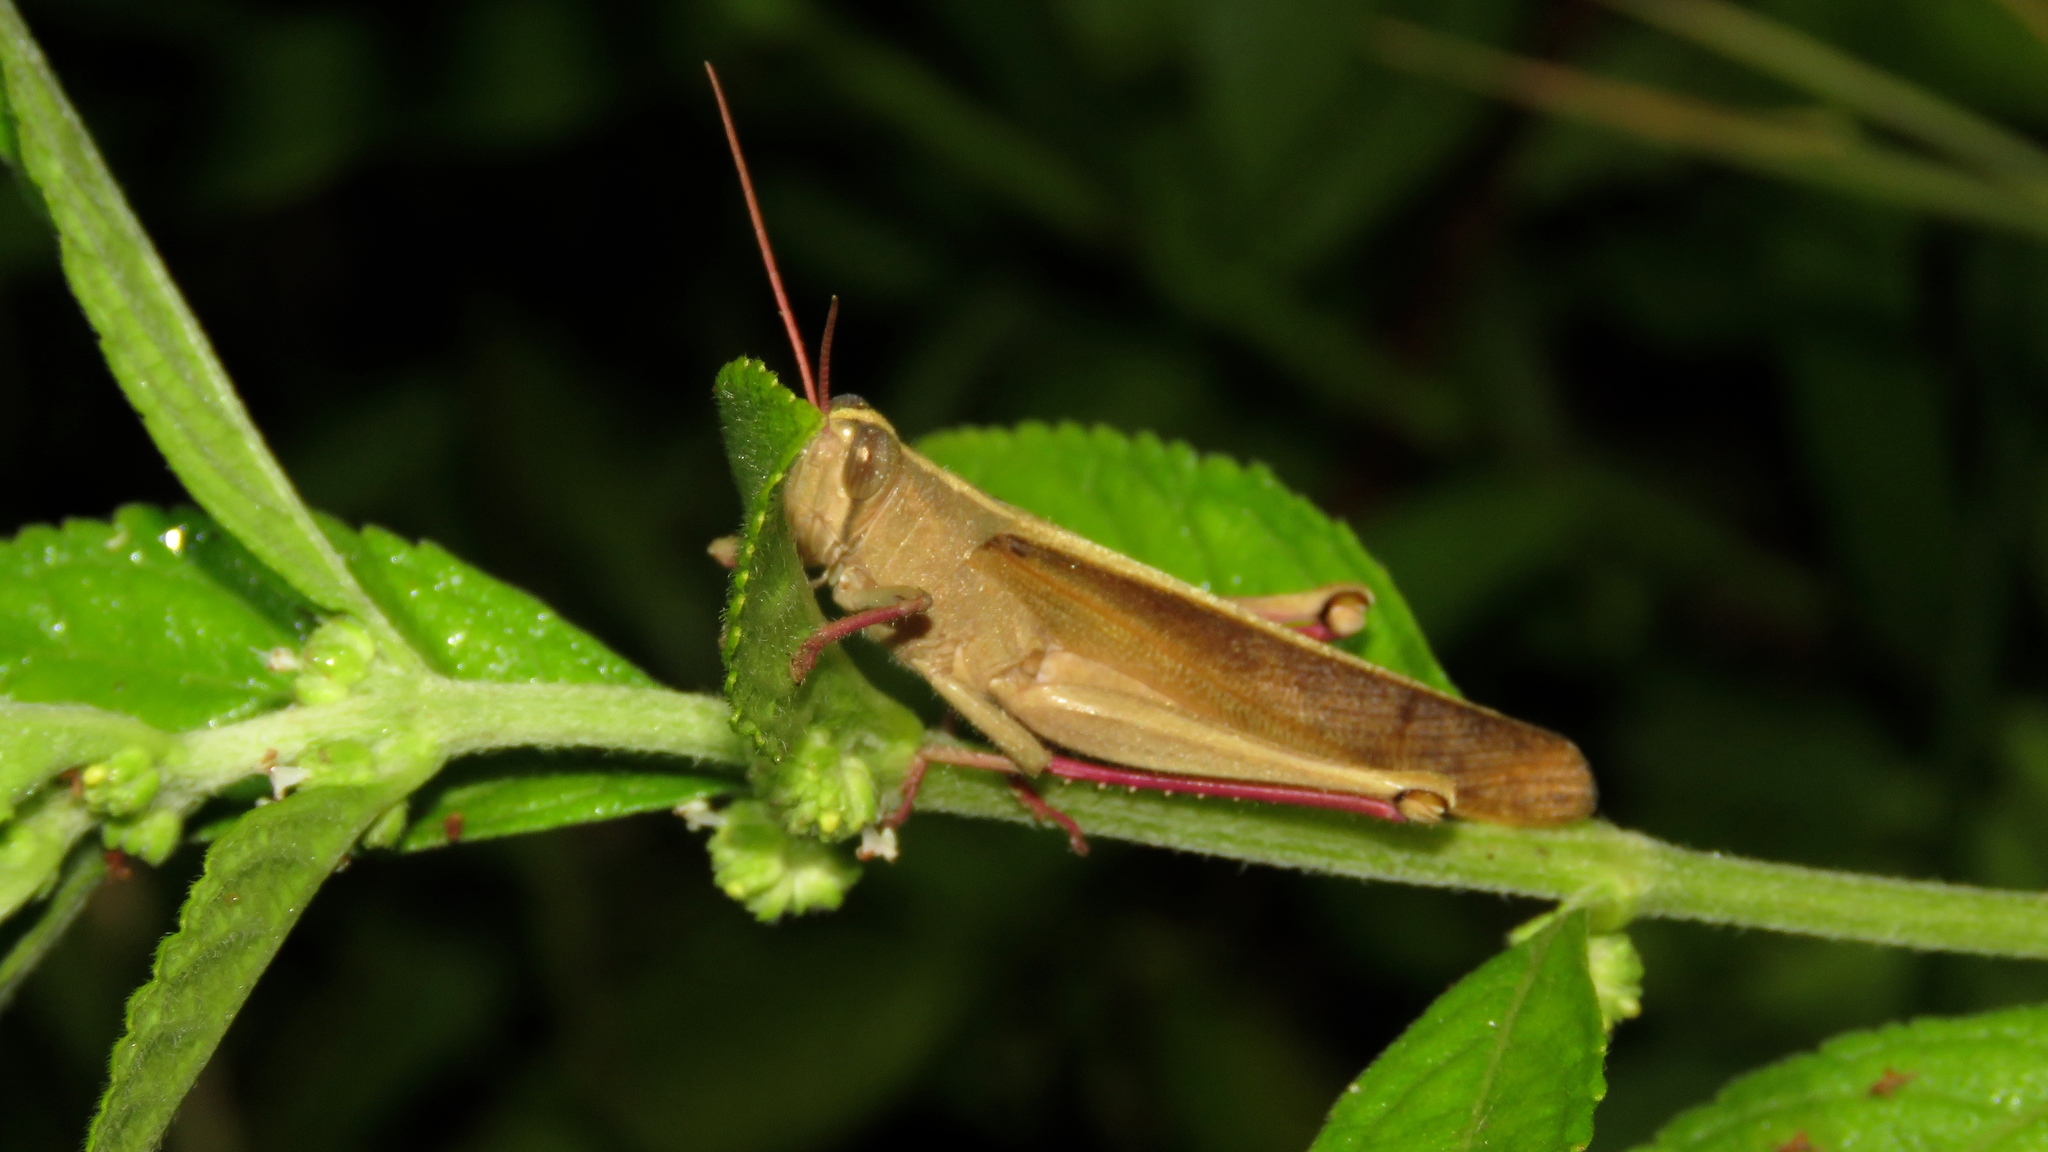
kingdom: Animalia
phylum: Arthropoda
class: Insecta
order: Orthoptera
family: Acrididae
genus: Schistocerca
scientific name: Schistocerca centralis
